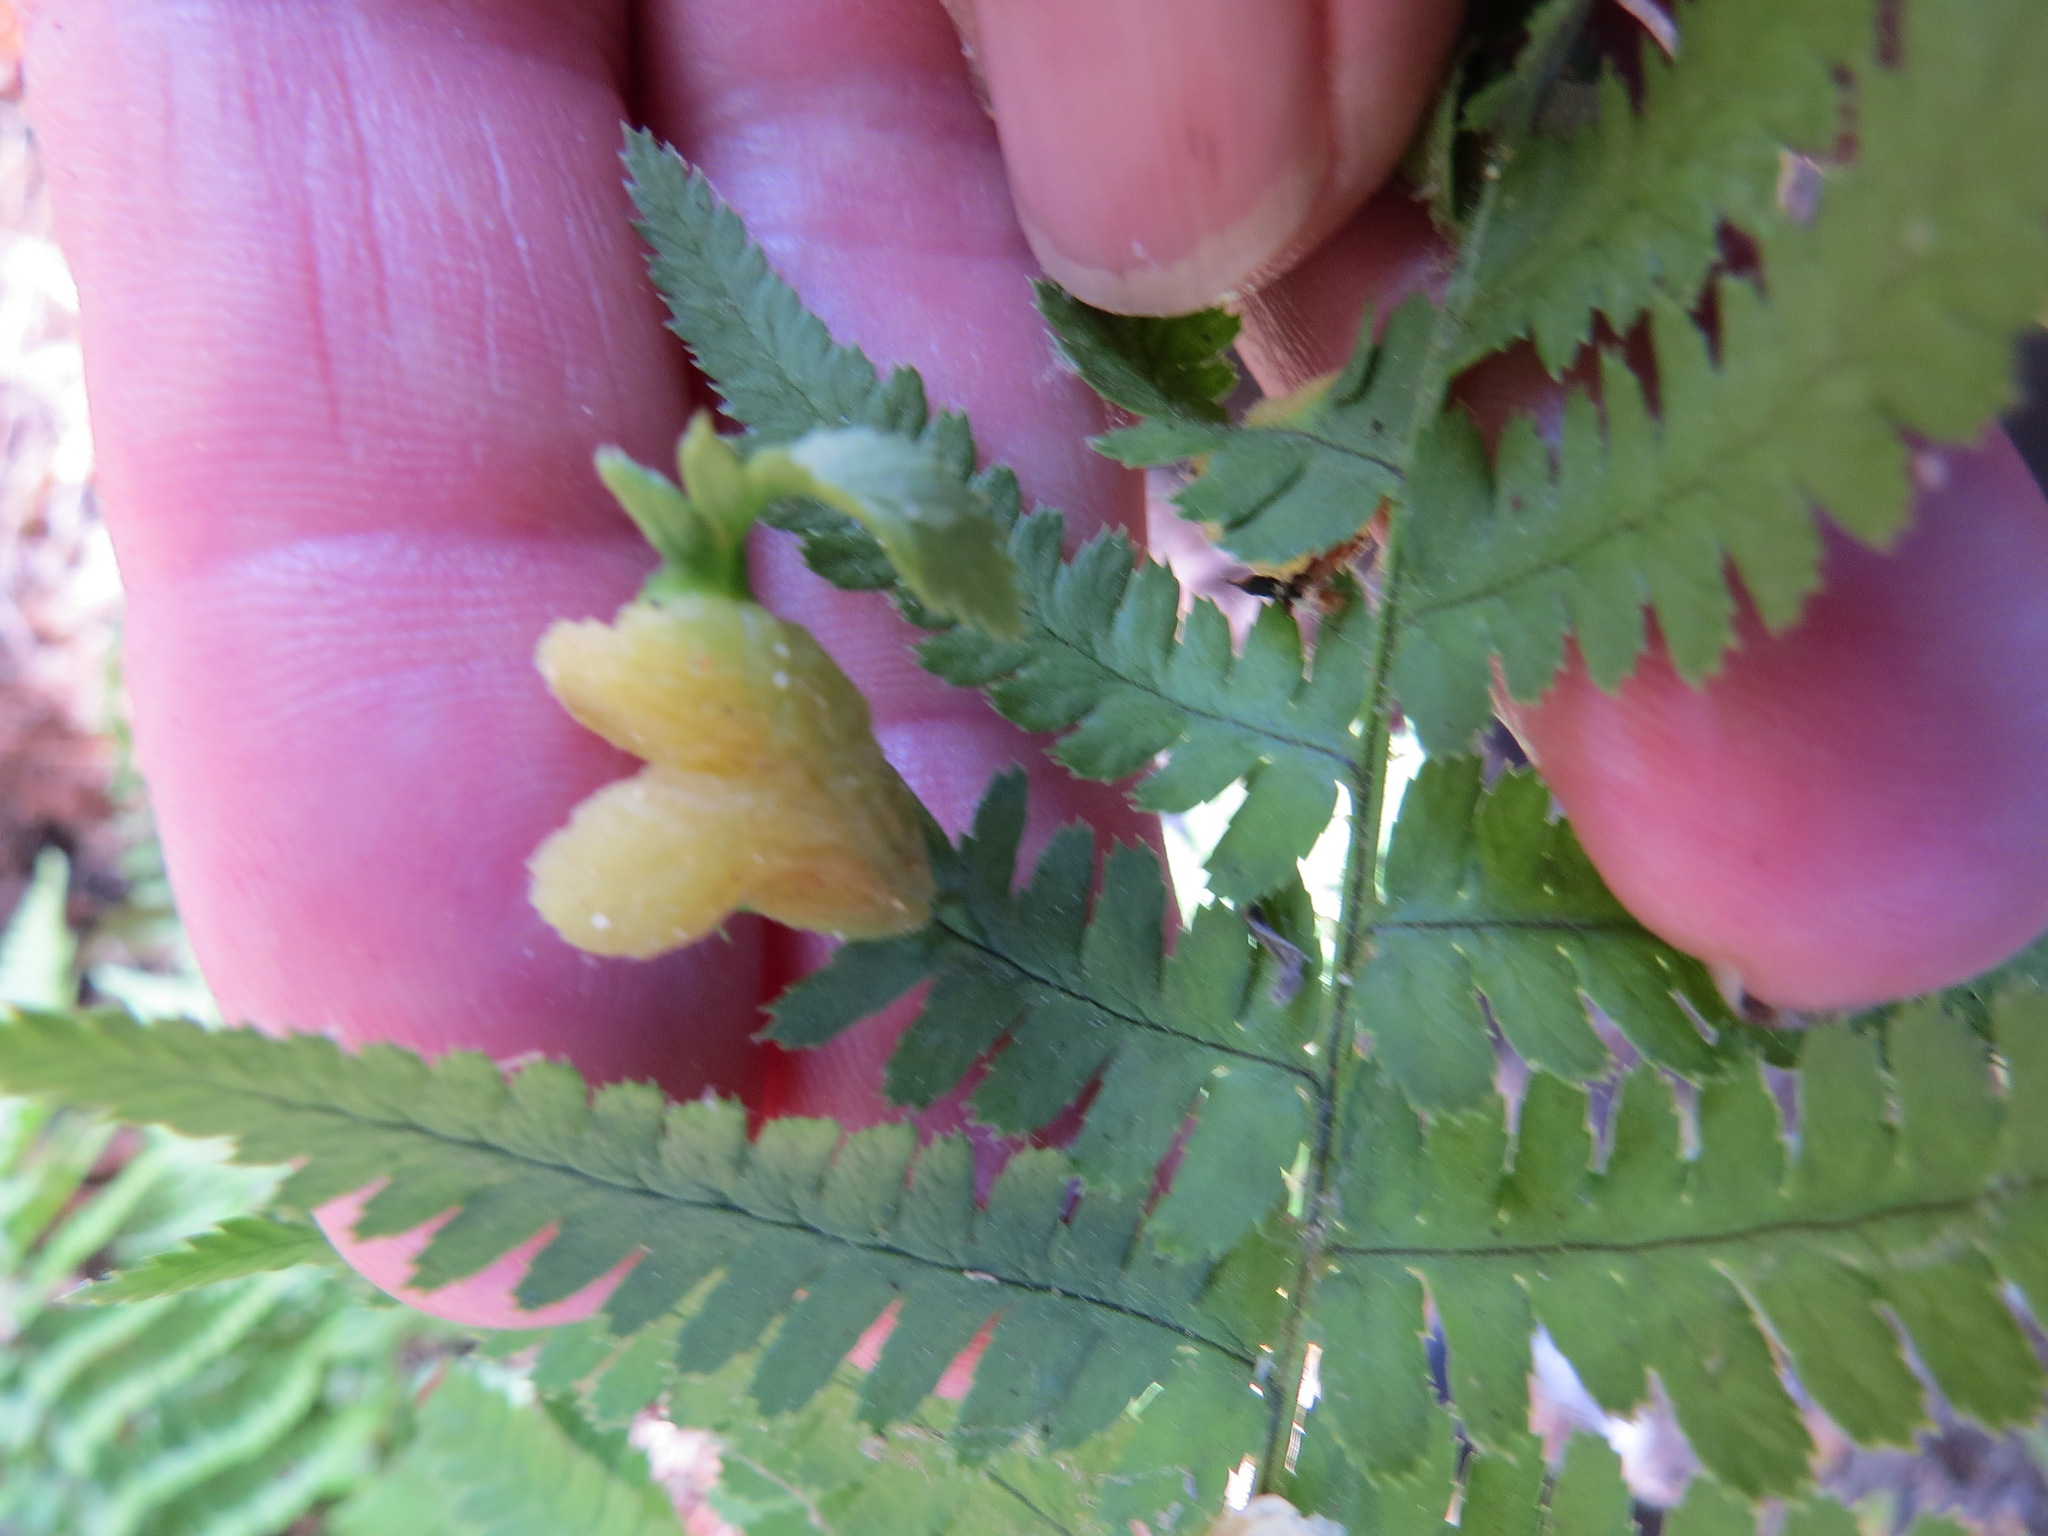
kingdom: Fungi
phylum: Ascomycota
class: Taphrinomycetes
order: Taphrinales
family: Taphrinaceae
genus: Taphrina
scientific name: Taphrina californica
